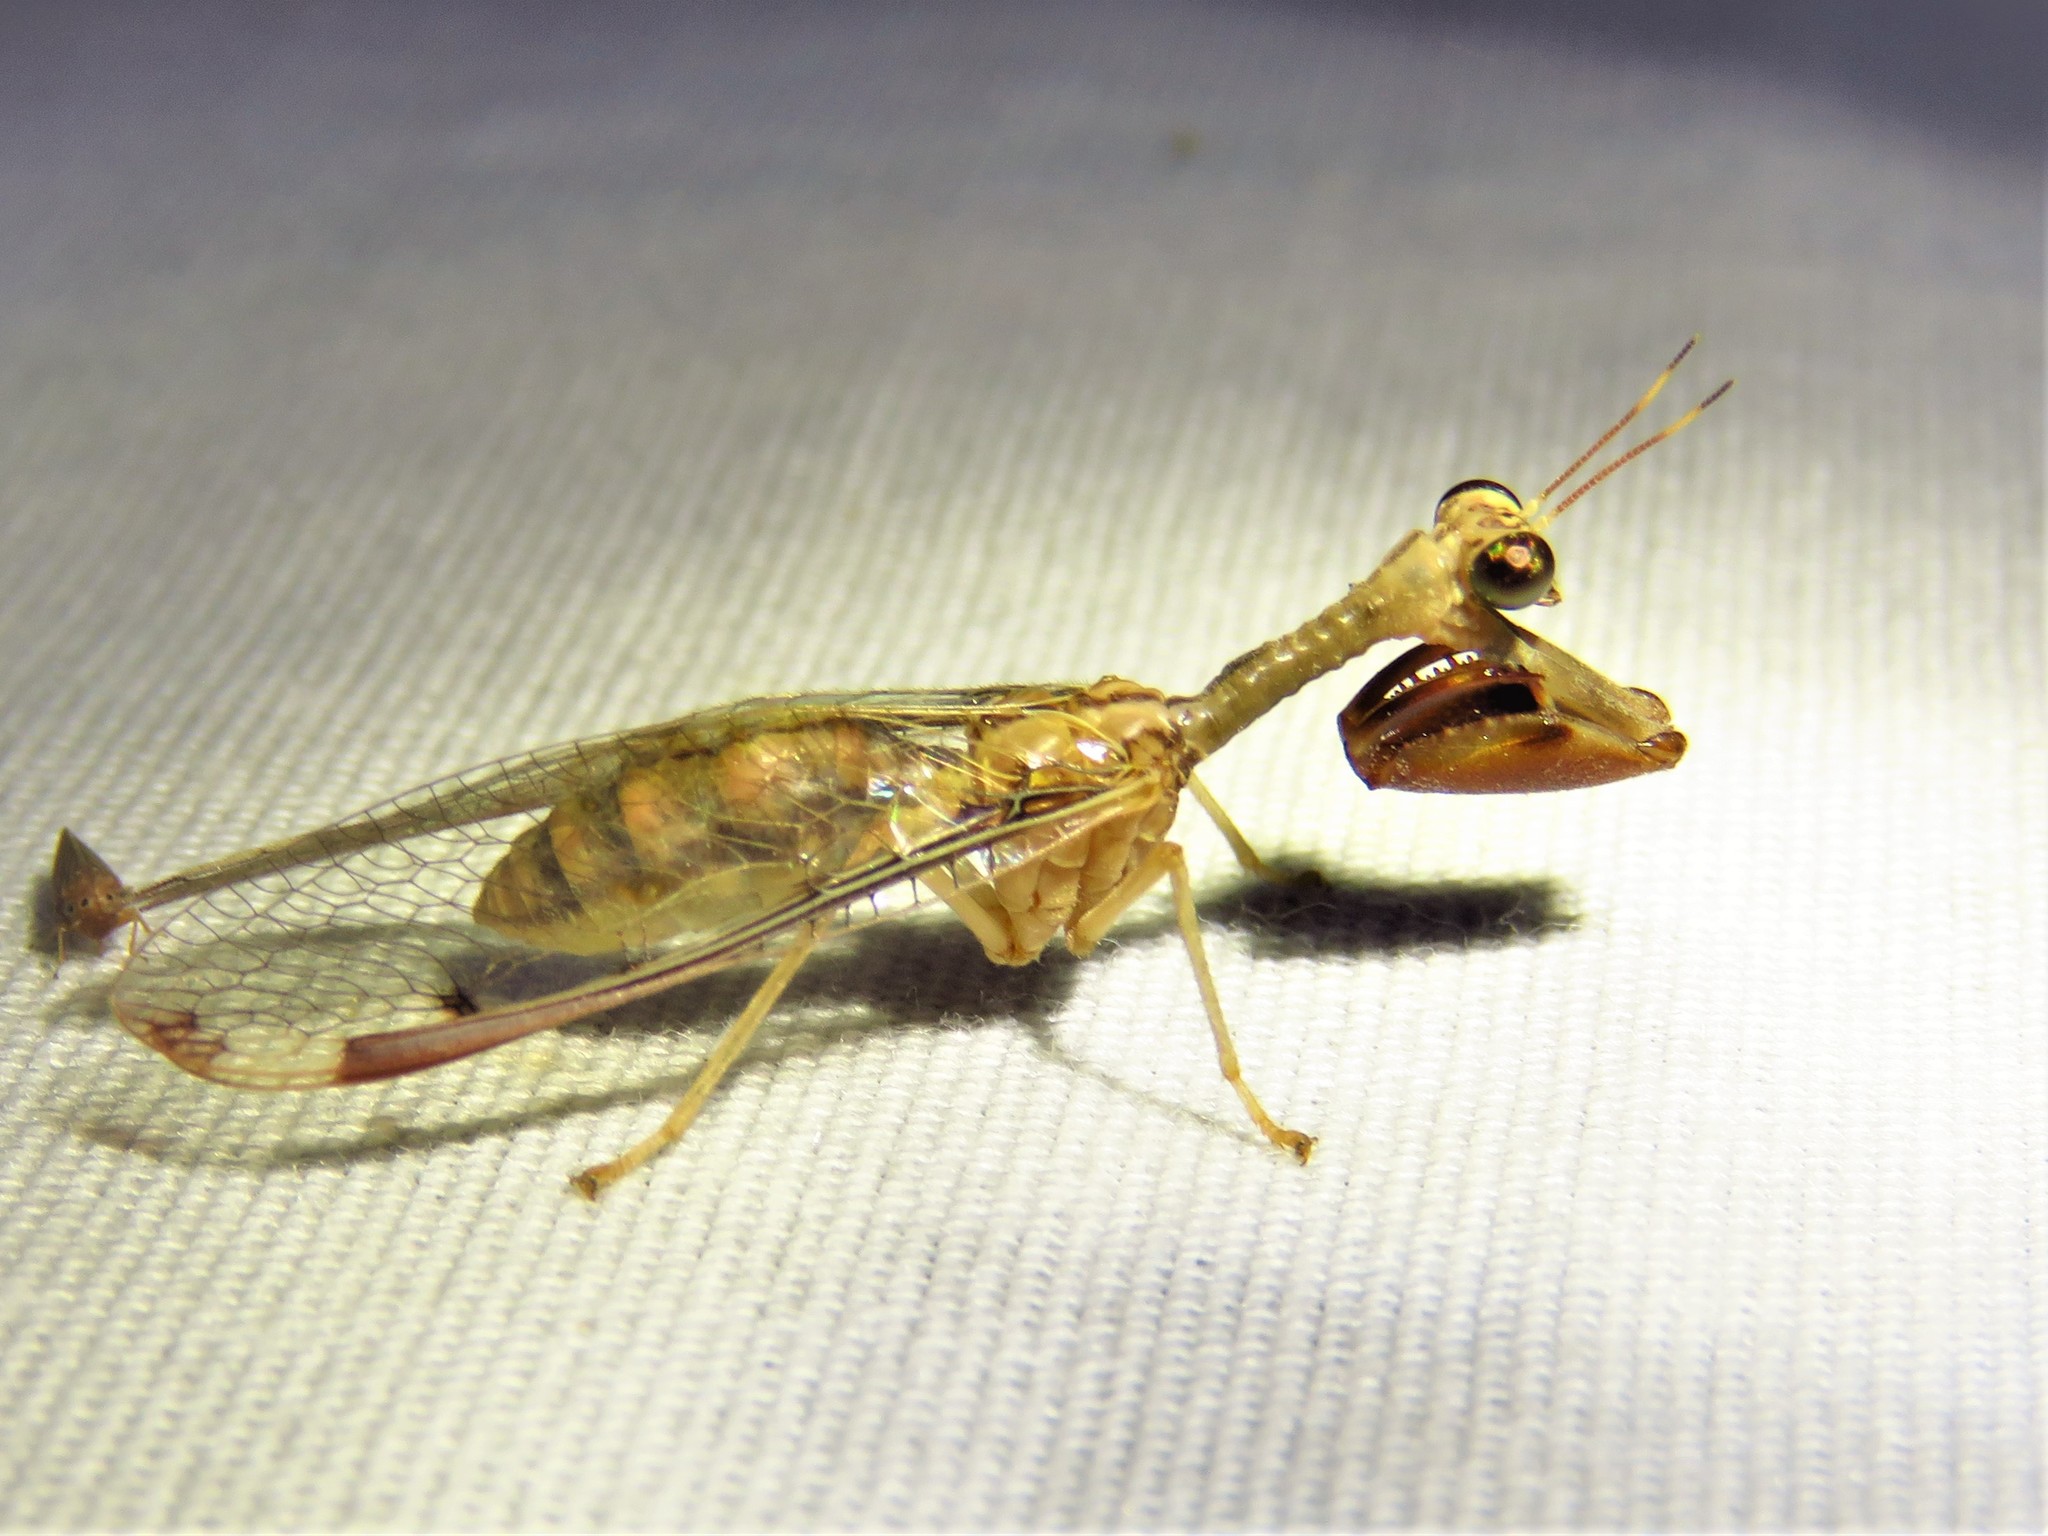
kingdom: Animalia
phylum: Arthropoda
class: Insecta
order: Neuroptera
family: Mantispidae
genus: Dicromantispa
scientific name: Dicromantispa interrupta
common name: Four-spotted mantidfly
